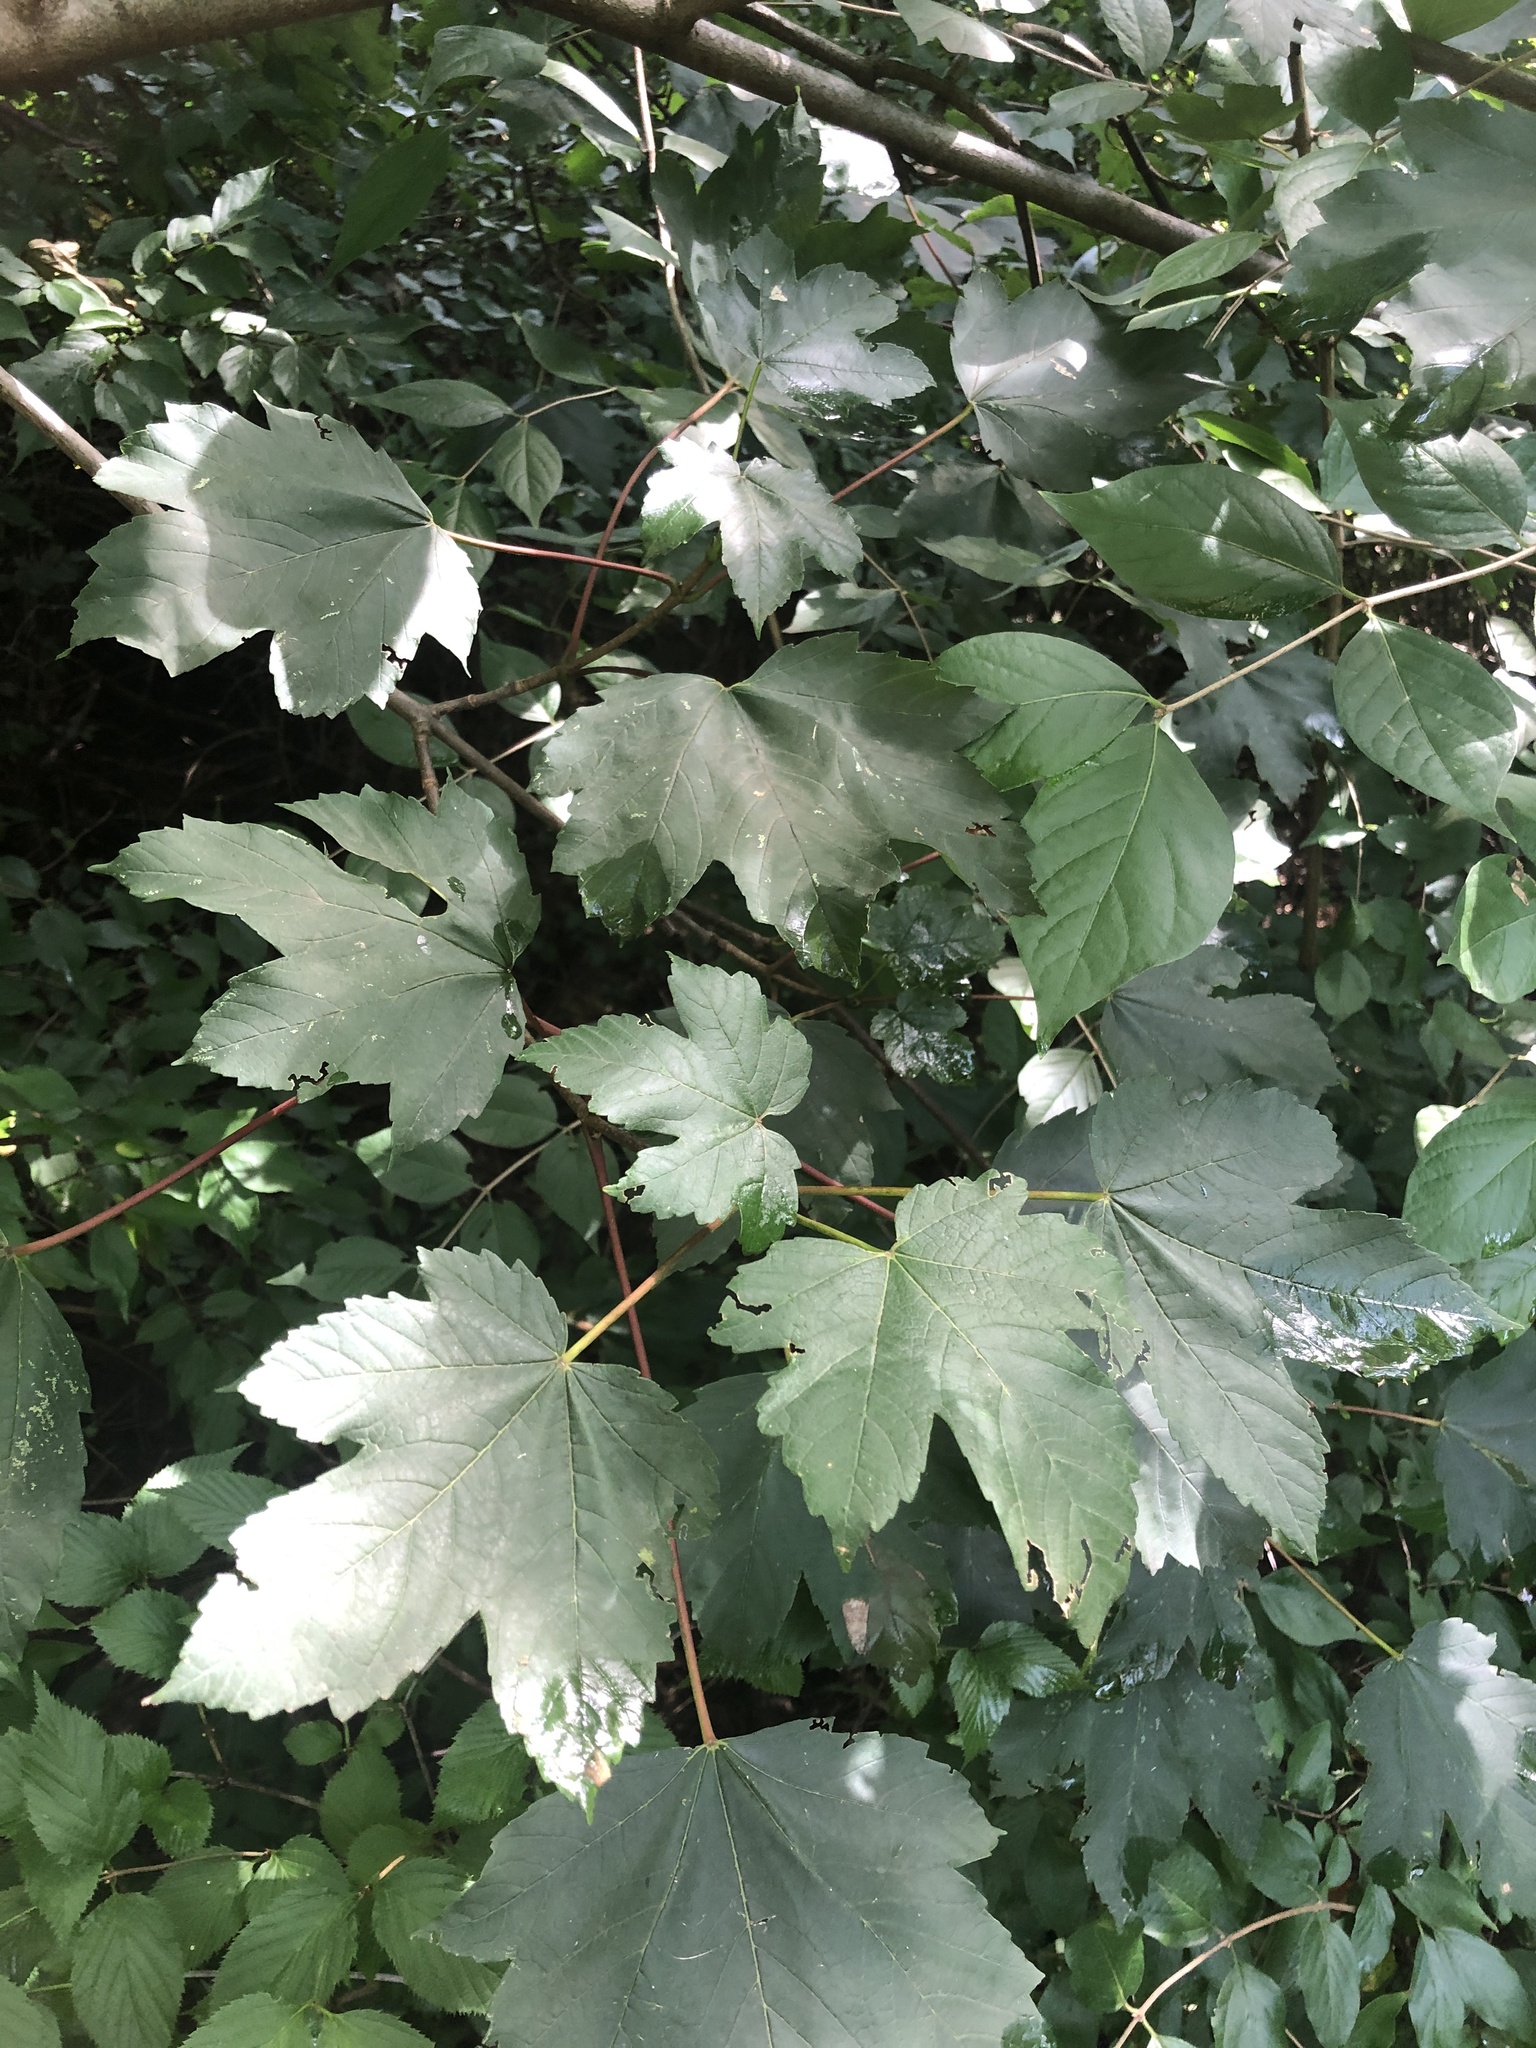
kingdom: Plantae
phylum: Tracheophyta
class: Magnoliopsida
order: Sapindales
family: Sapindaceae
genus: Acer
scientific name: Acer pseudoplatanus
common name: Sycamore
